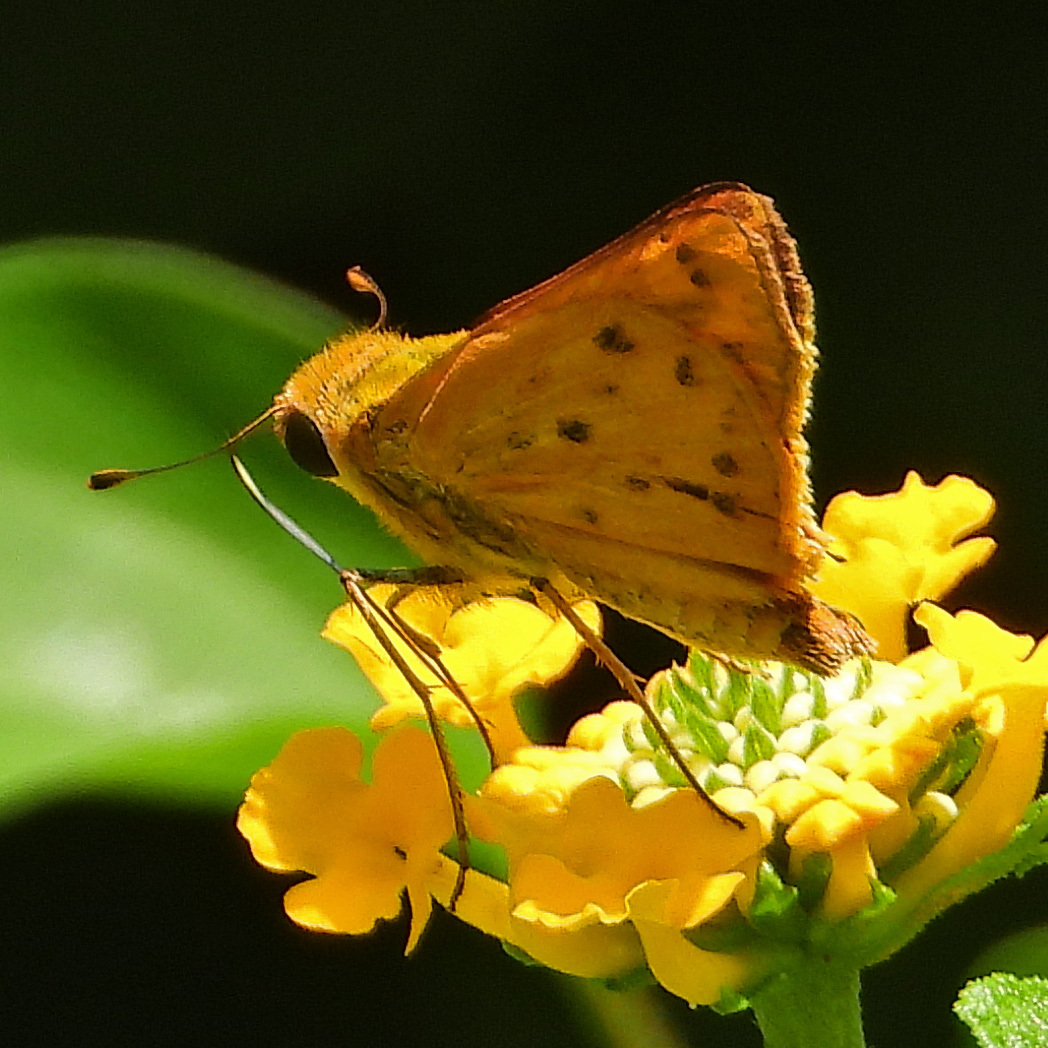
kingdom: Animalia
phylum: Arthropoda
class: Insecta
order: Lepidoptera
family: Hesperiidae
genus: Hylephila
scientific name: Hylephila phyleus
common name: Fiery skipper
